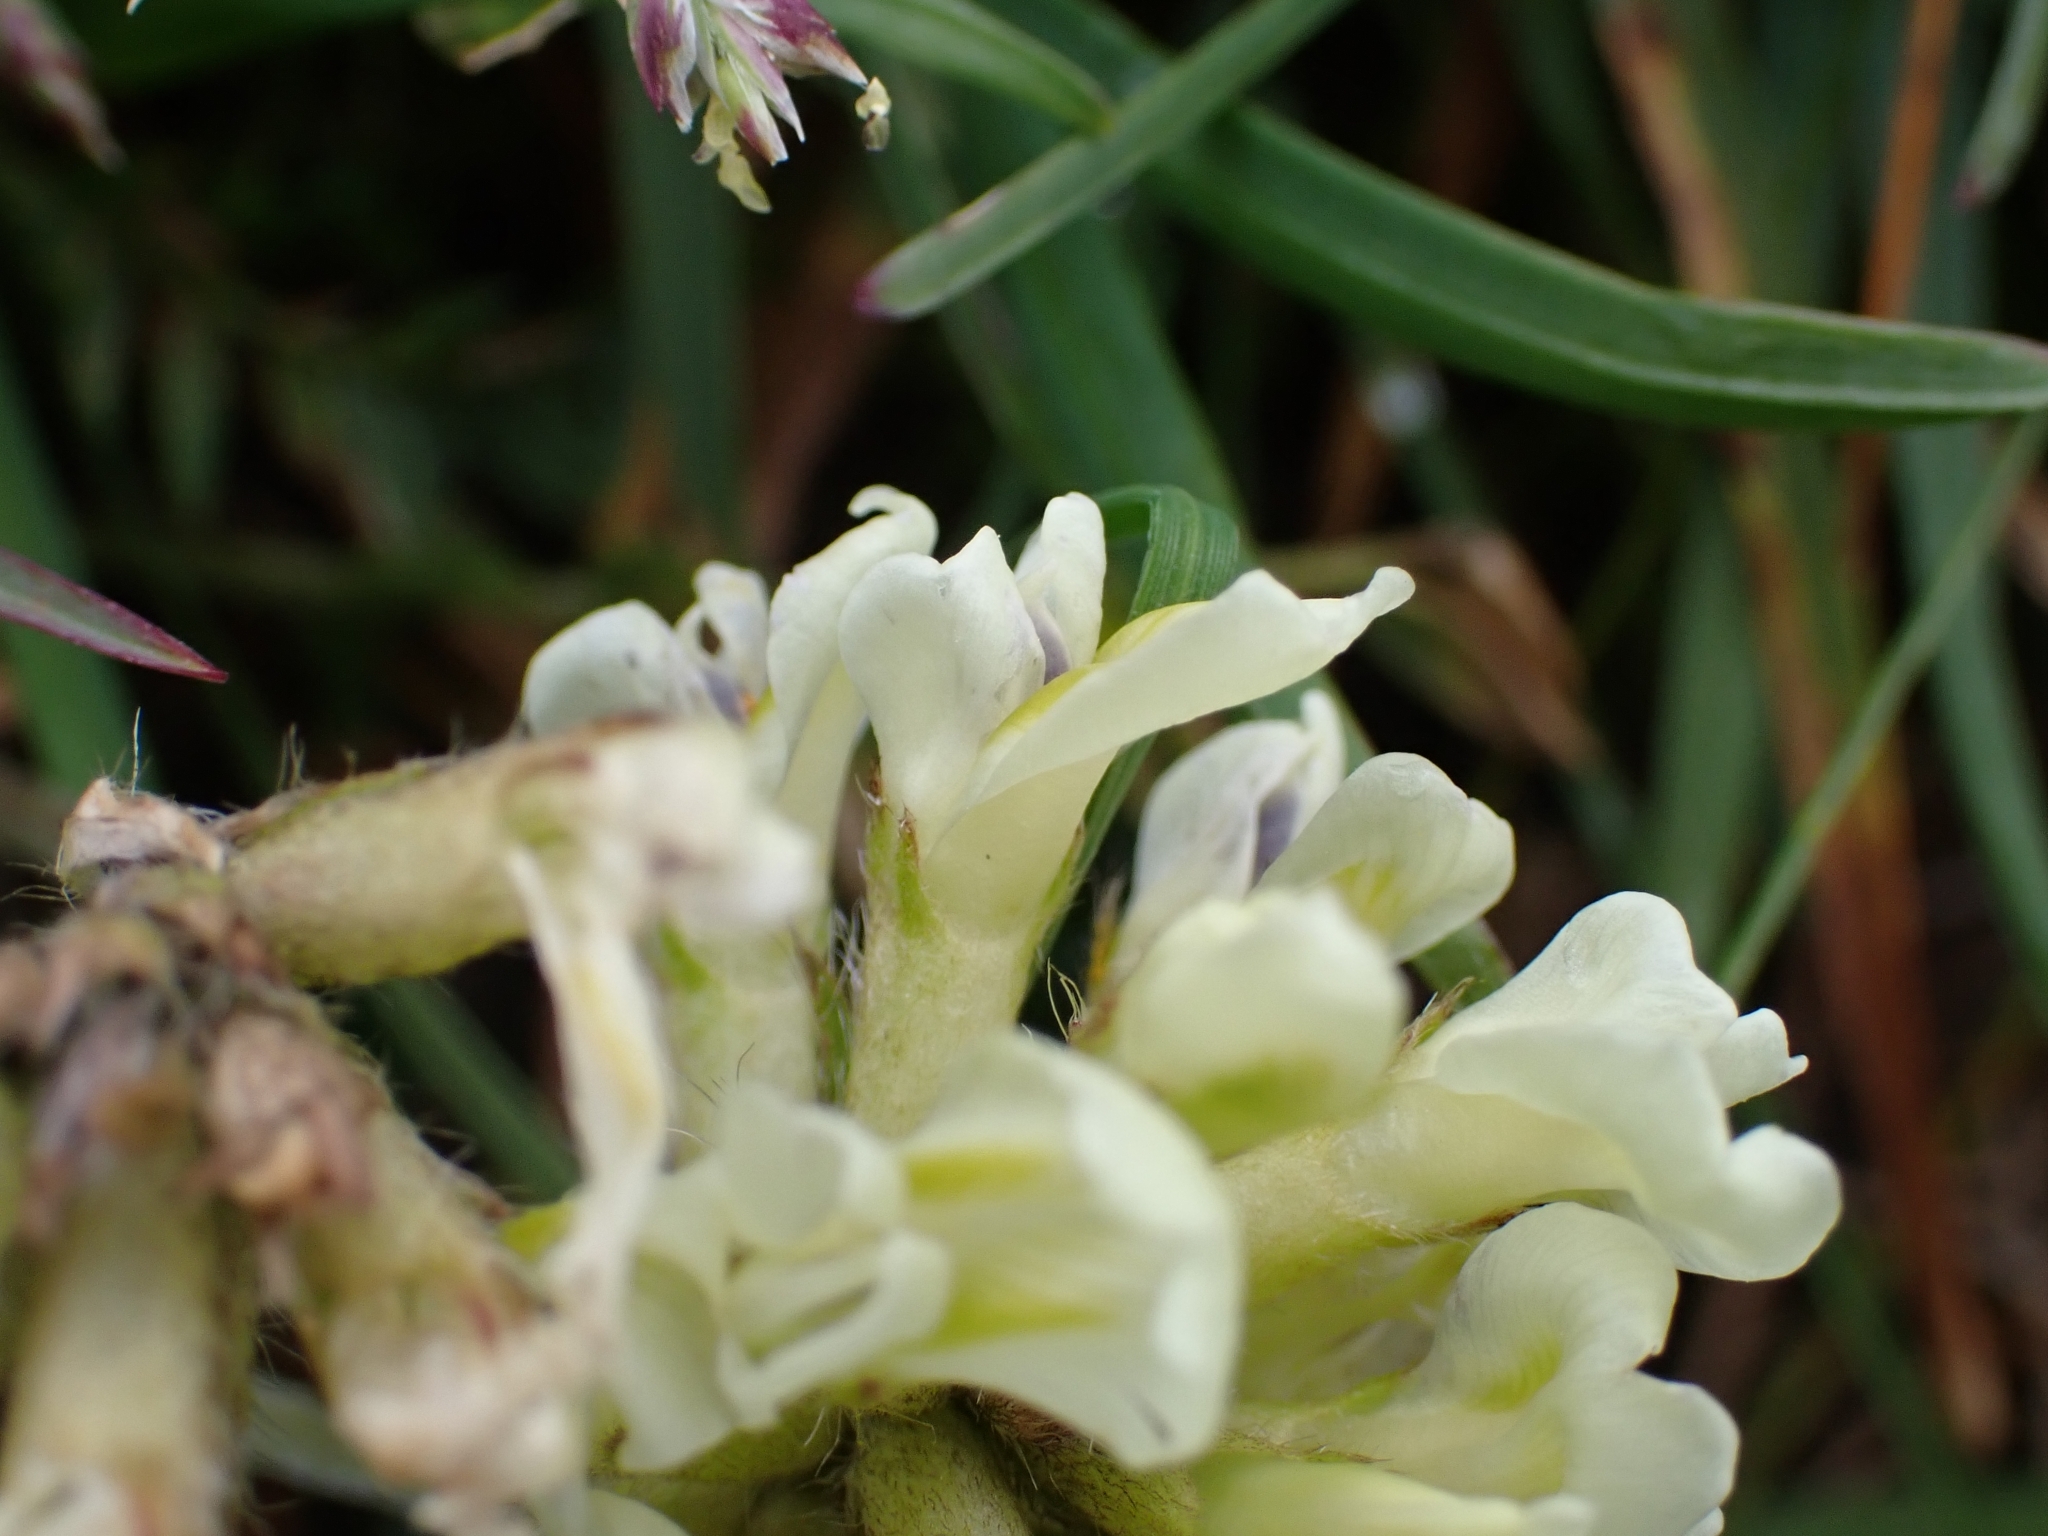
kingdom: Plantae
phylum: Tracheophyta
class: Magnoliopsida
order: Fabales
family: Fabaceae
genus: Oxytropis
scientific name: Oxytropis campestris
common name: Field locoweed
